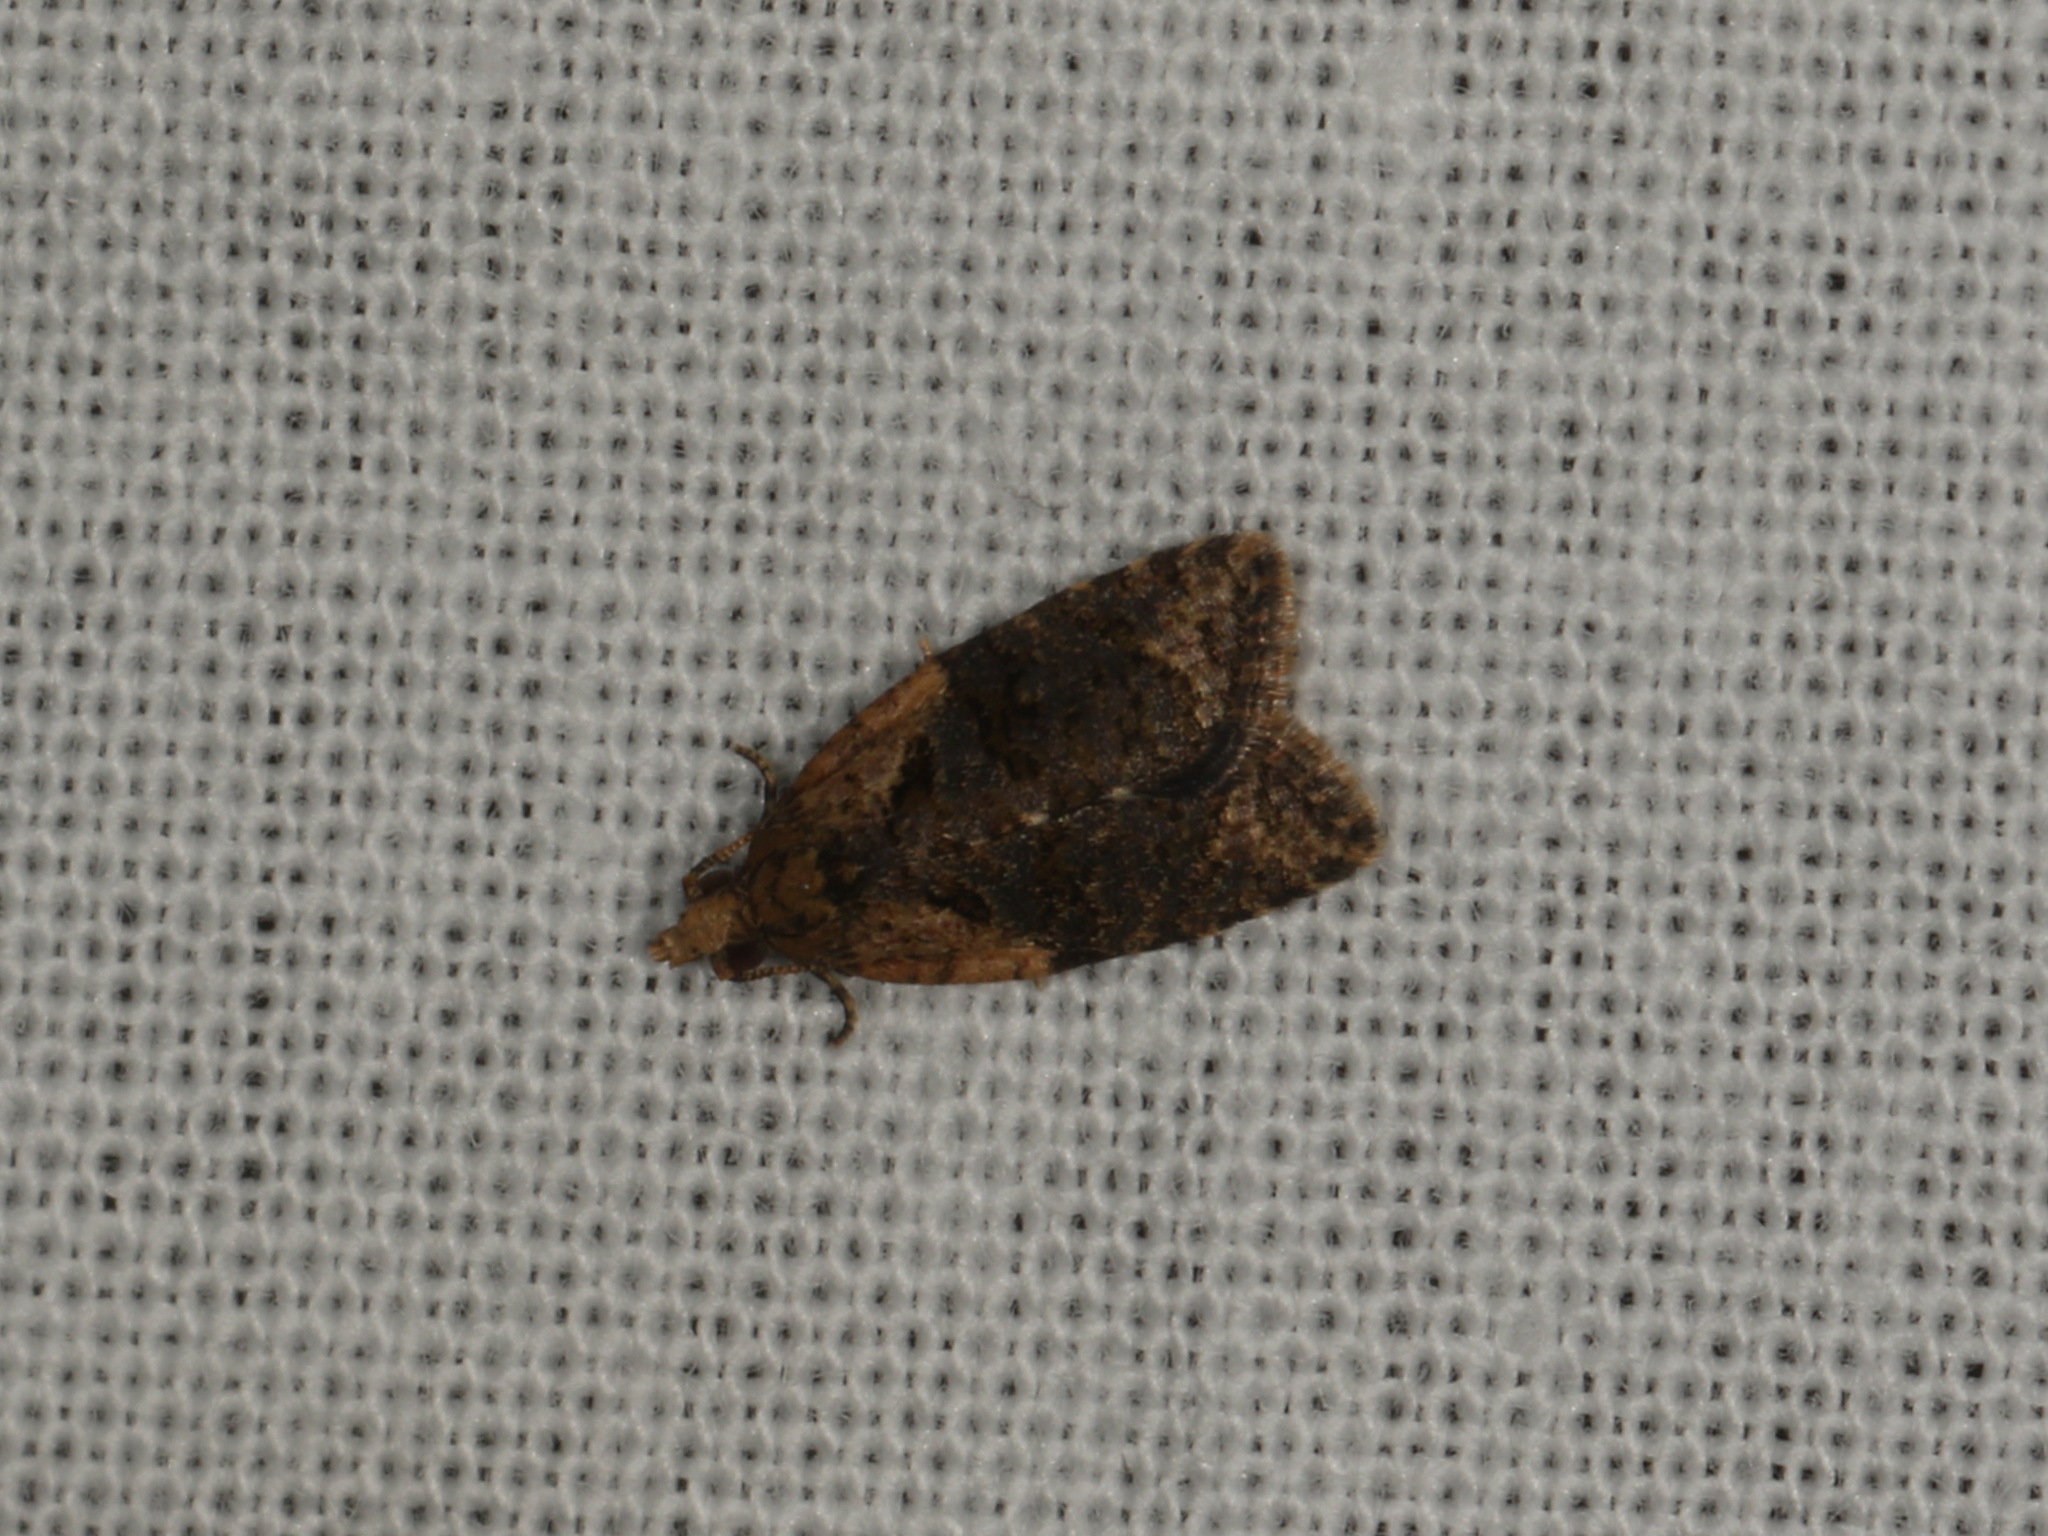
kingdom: Animalia
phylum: Arthropoda
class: Insecta
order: Lepidoptera
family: Tortricidae
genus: Capua
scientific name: Capua intractana
